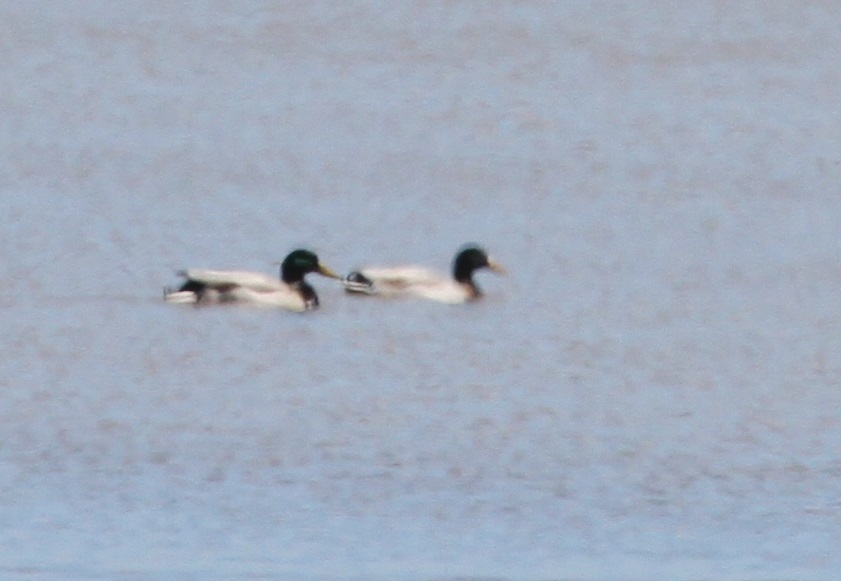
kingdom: Animalia
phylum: Chordata
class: Aves
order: Anseriformes
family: Anatidae
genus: Anas
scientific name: Anas platyrhynchos
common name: Mallard
